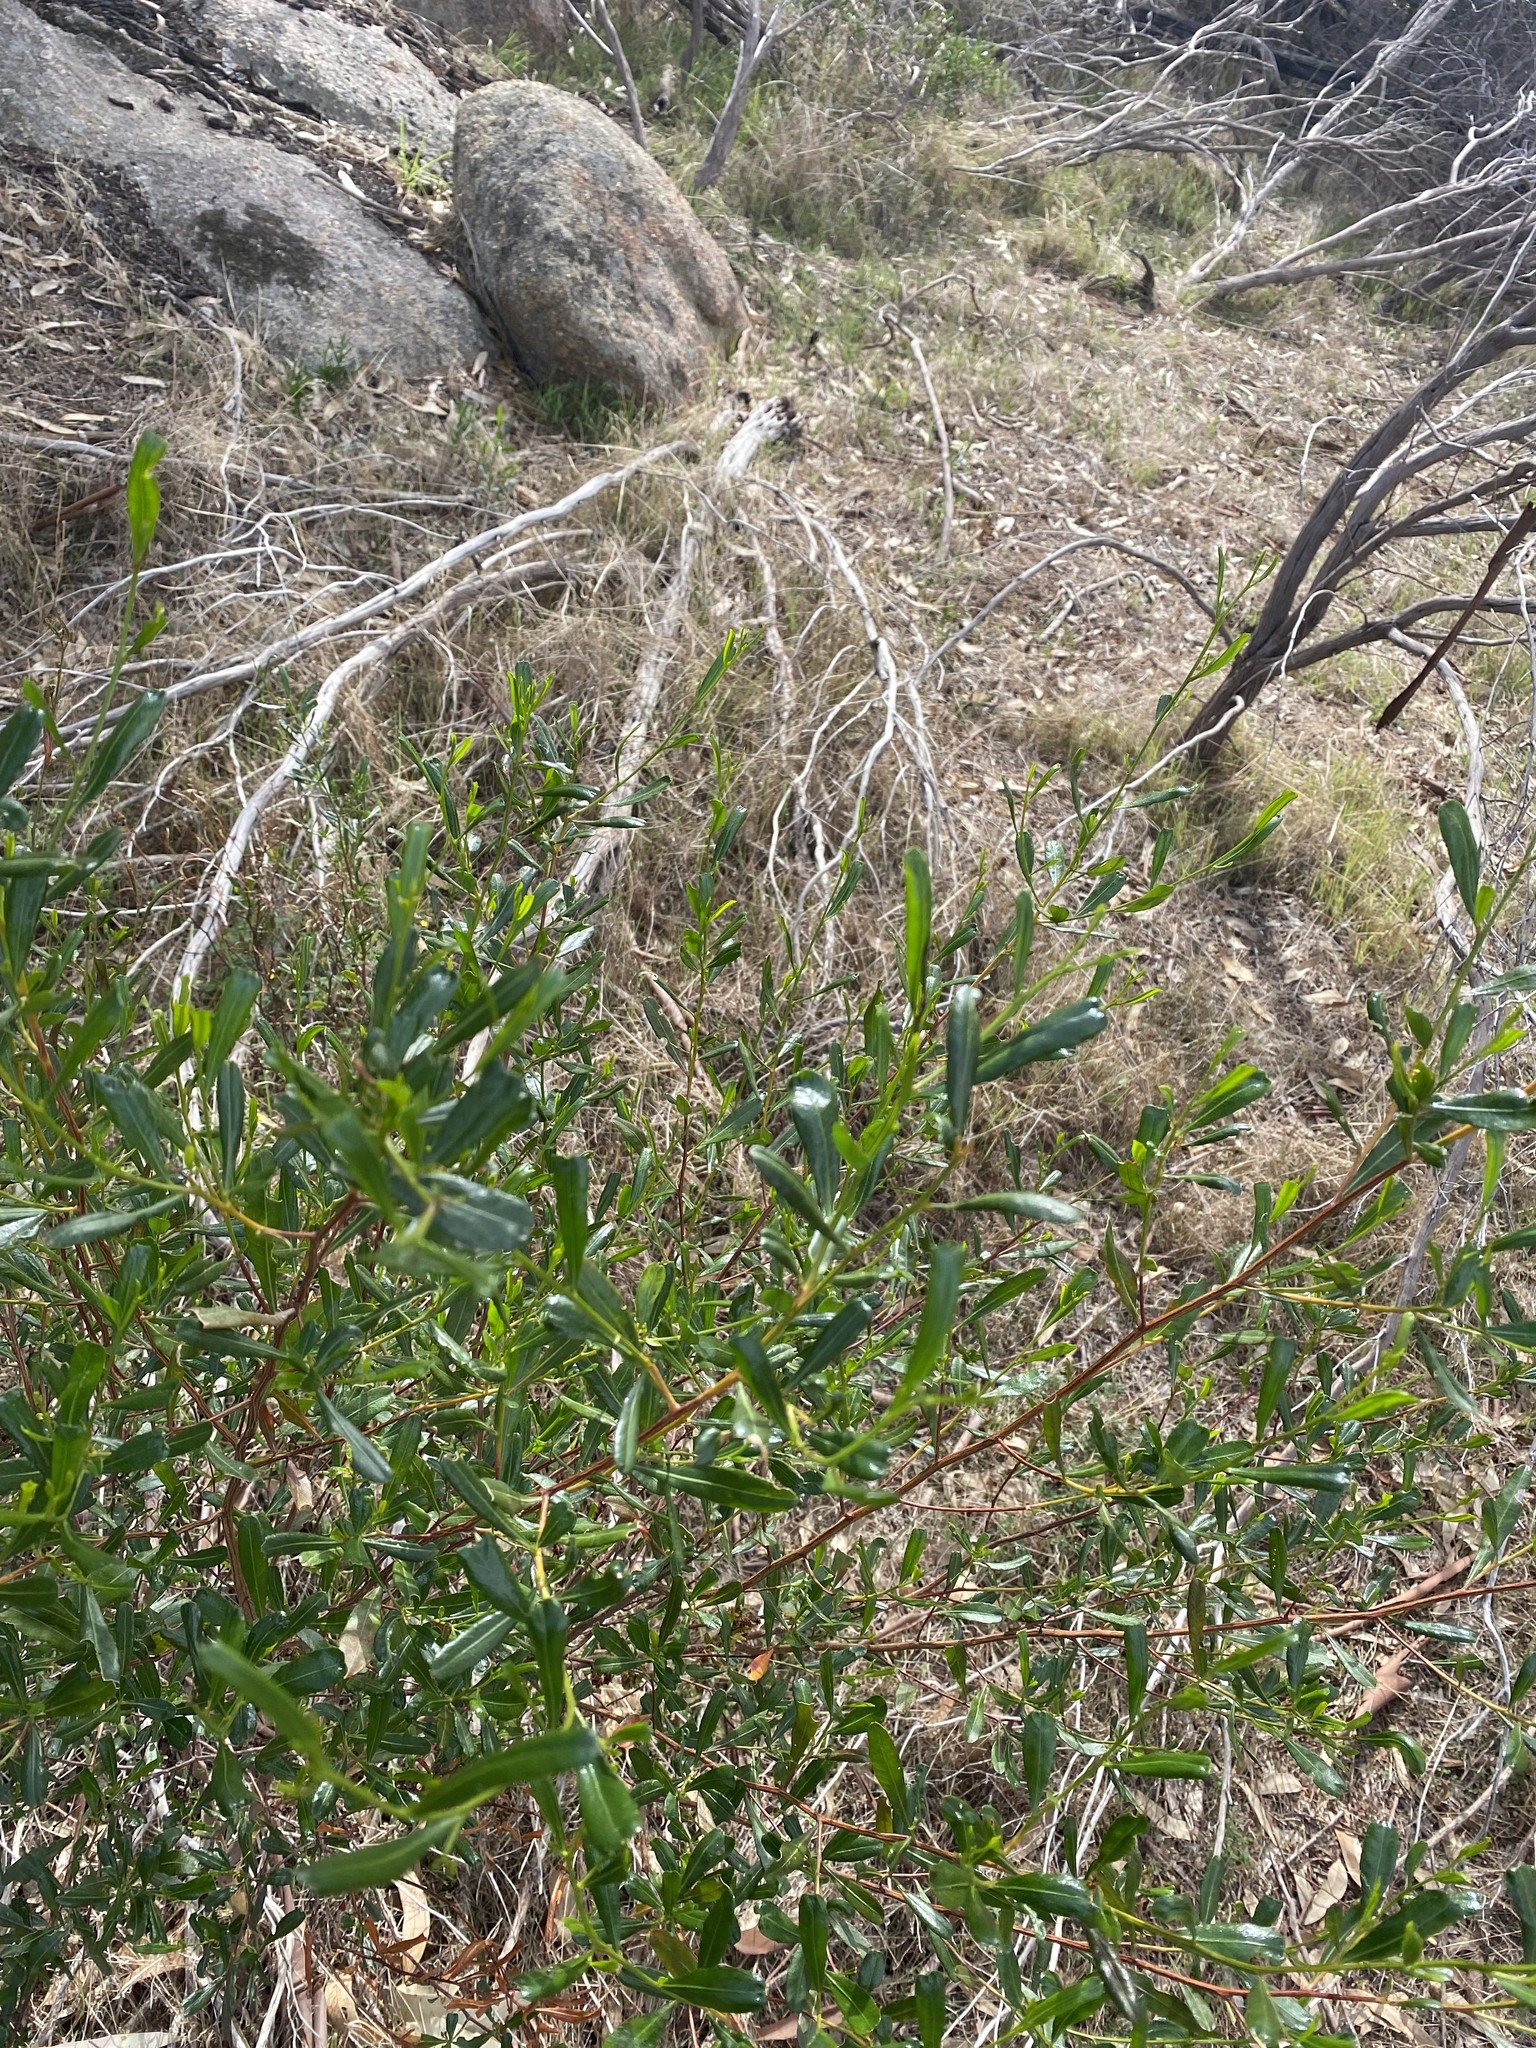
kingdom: Plantae
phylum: Tracheophyta
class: Magnoliopsida
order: Sapindales
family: Sapindaceae
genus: Dodonaea
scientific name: Dodonaea viscosa
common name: Hopbush
